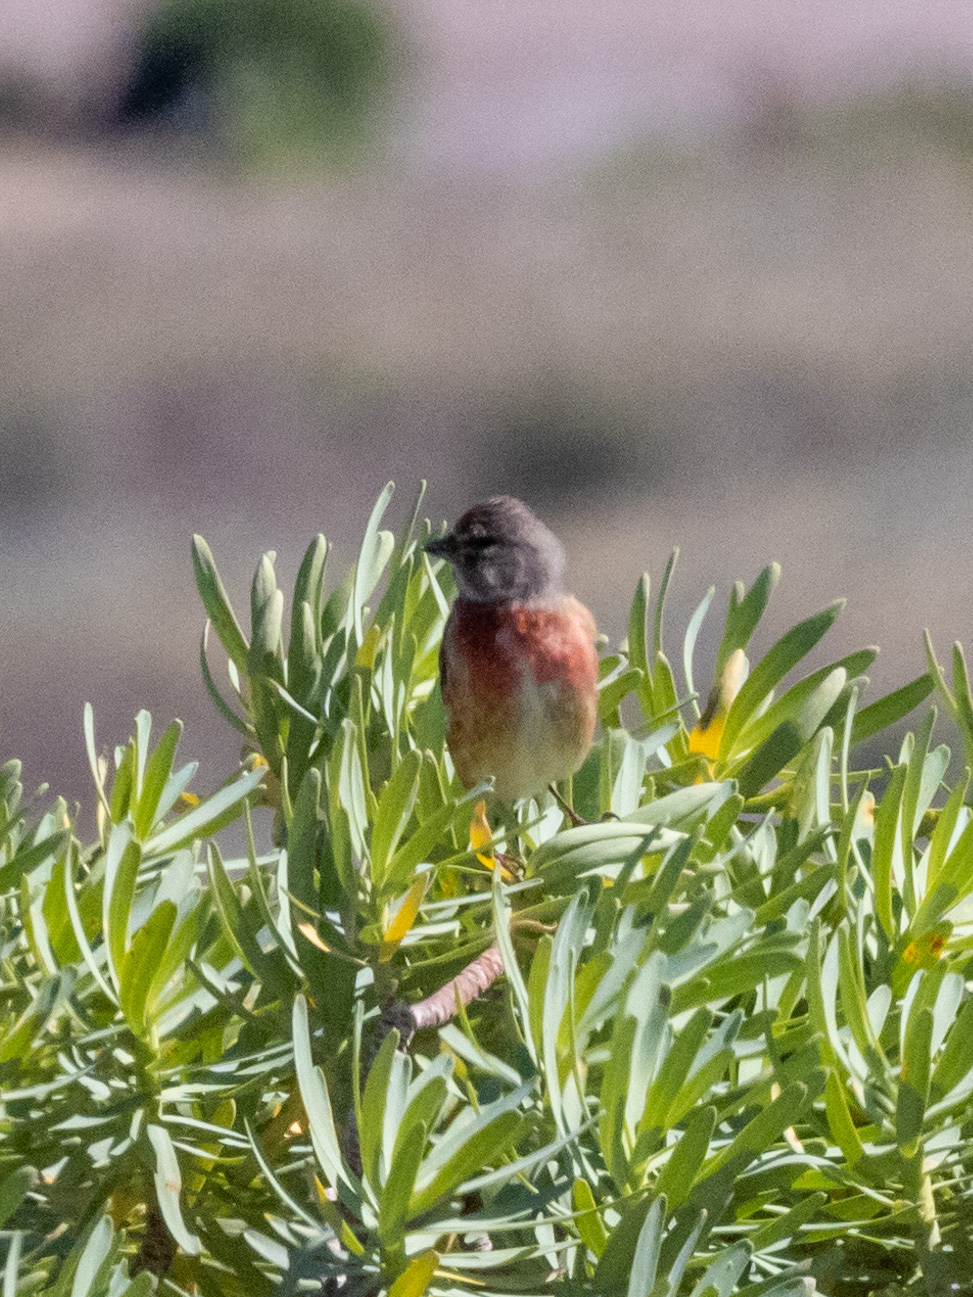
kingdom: Animalia
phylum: Chordata
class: Aves
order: Passeriformes
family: Fringillidae
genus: Linaria
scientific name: Linaria cannabina
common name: Common linnet
